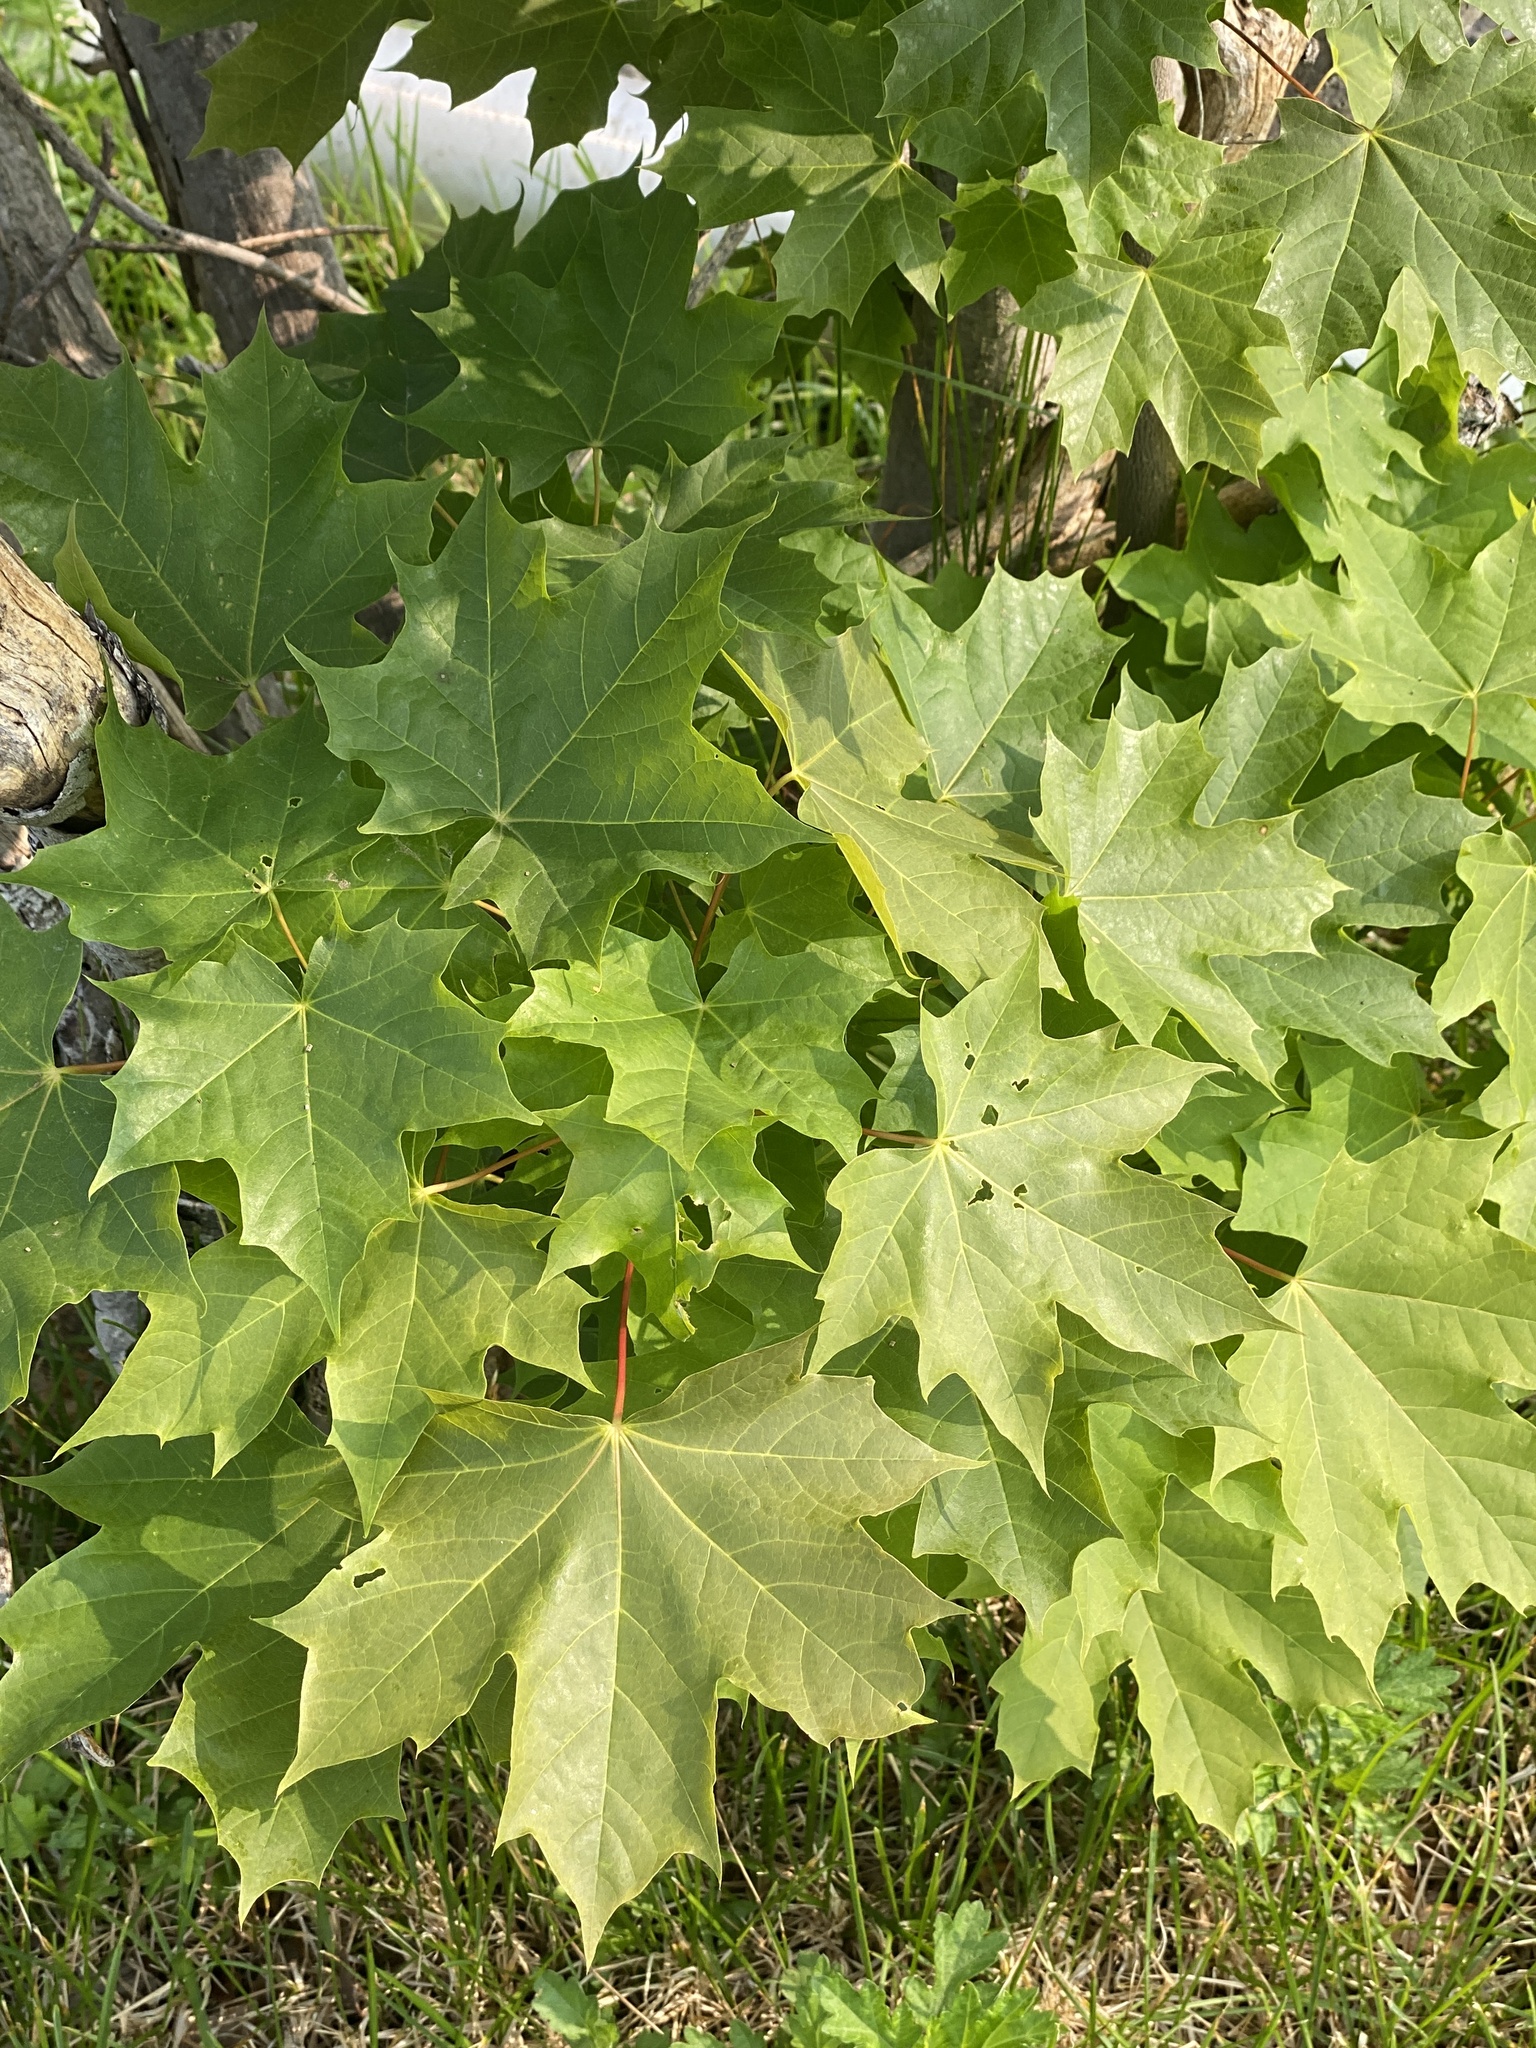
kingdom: Plantae
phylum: Tracheophyta
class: Magnoliopsida
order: Sapindales
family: Sapindaceae
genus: Acer
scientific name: Acer platanoides
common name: Norway maple
